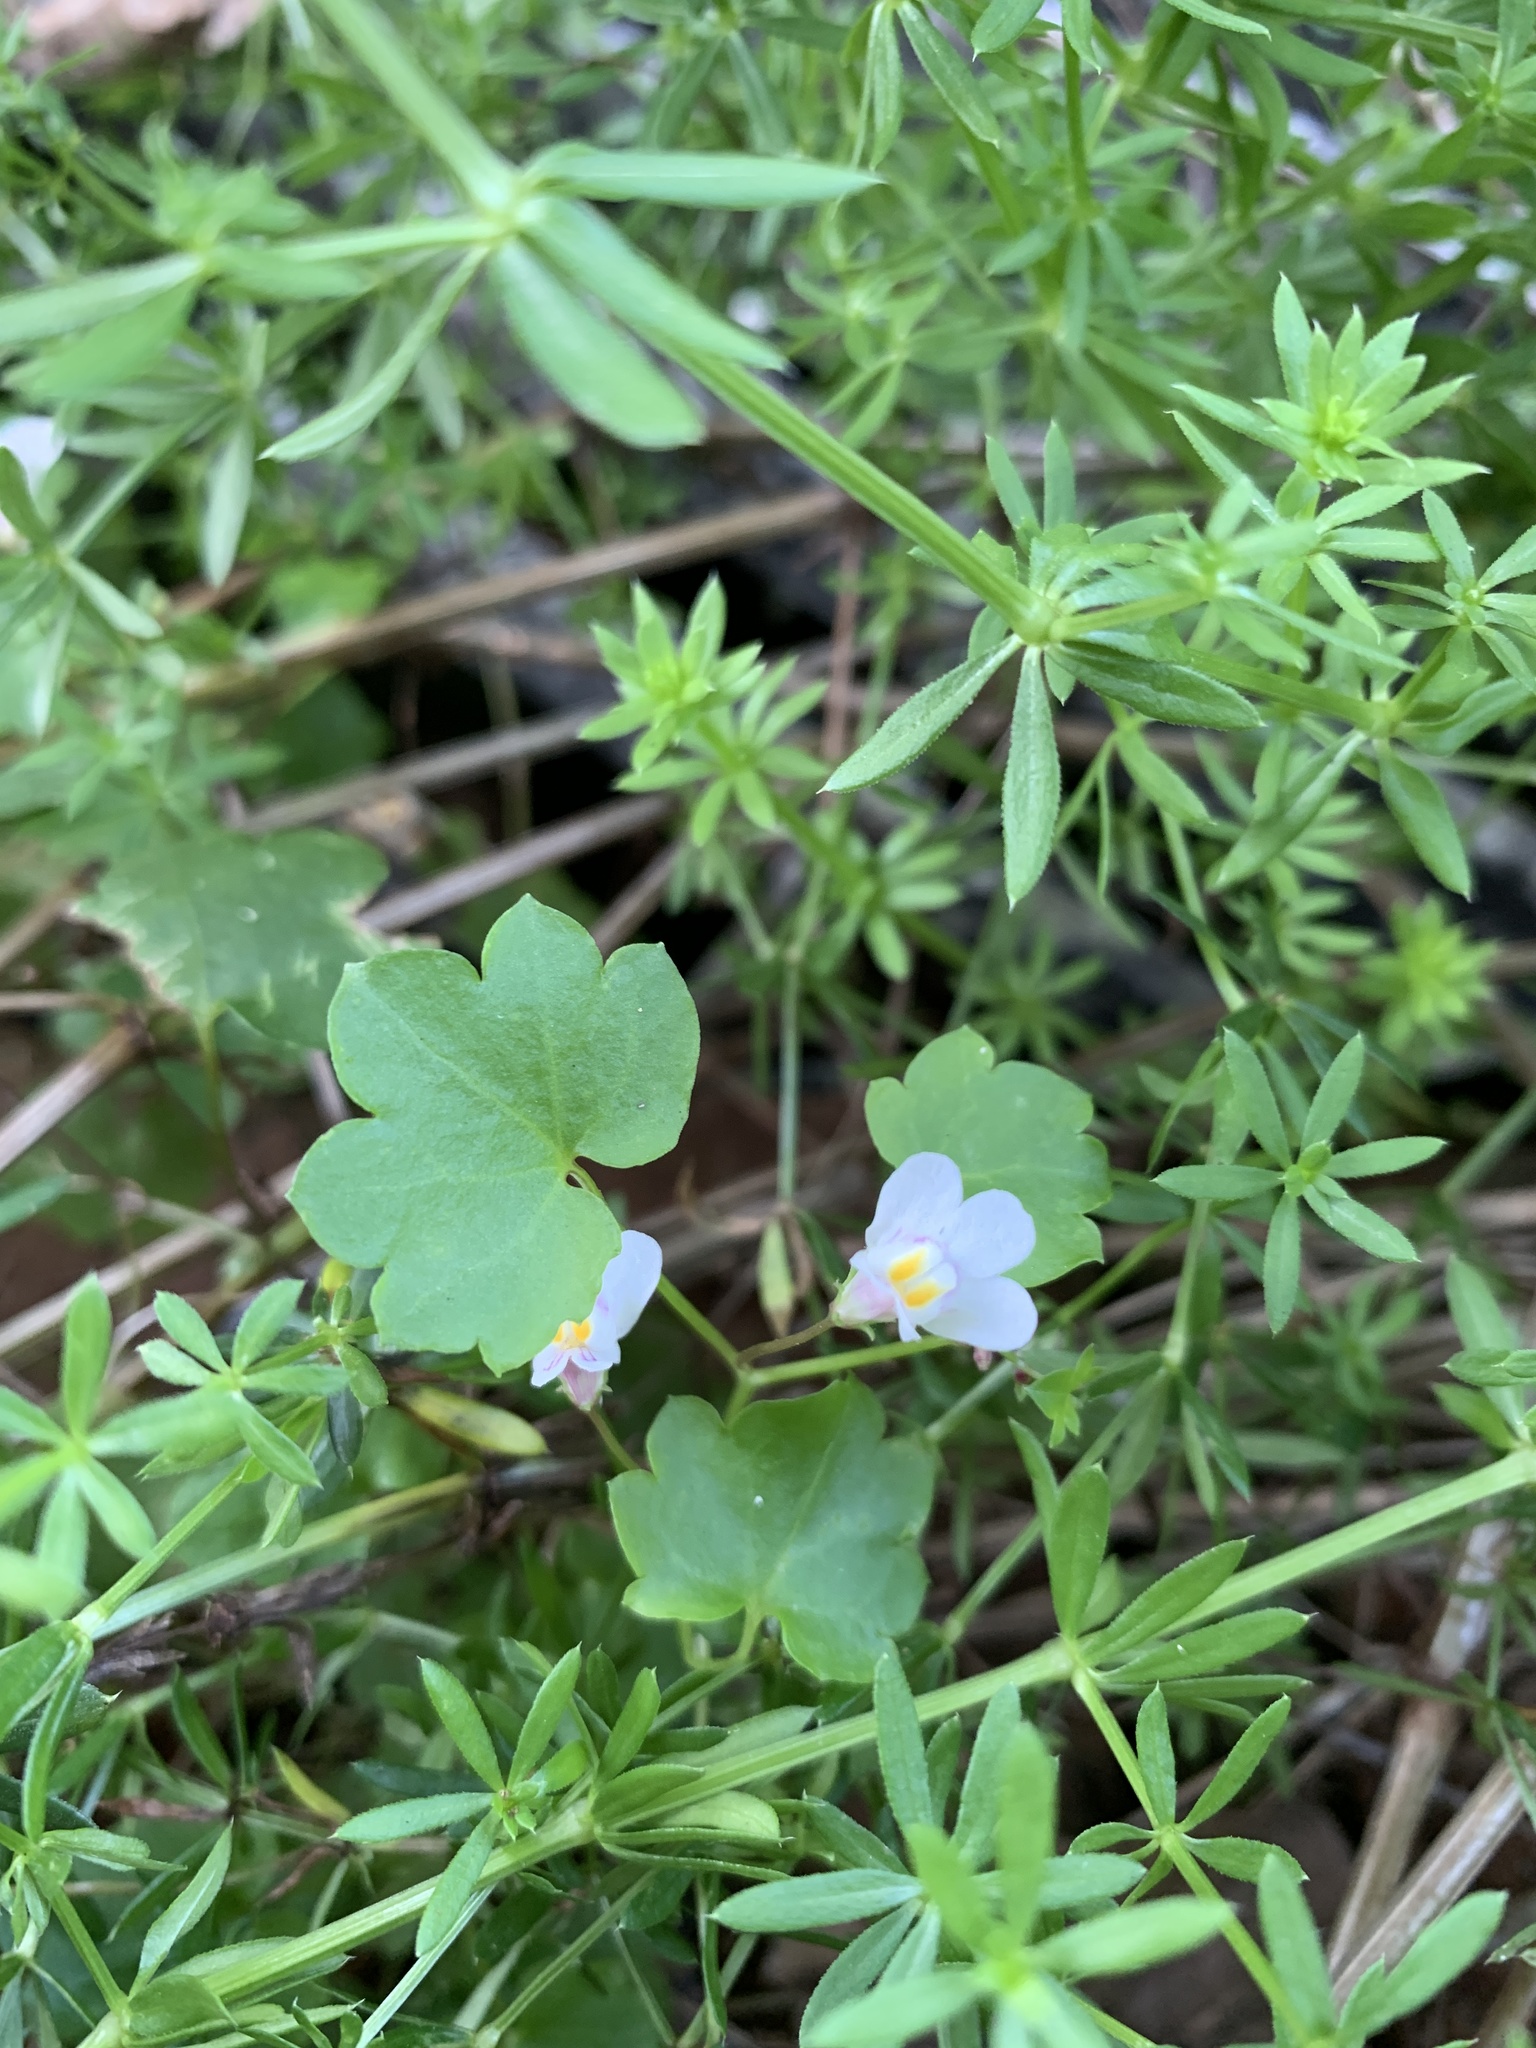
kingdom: Plantae
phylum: Tracheophyta
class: Magnoliopsida
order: Lamiales
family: Plantaginaceae
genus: Cymbalaria
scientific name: Cymbalaria muralis
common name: Ivy-leaved toadflax
